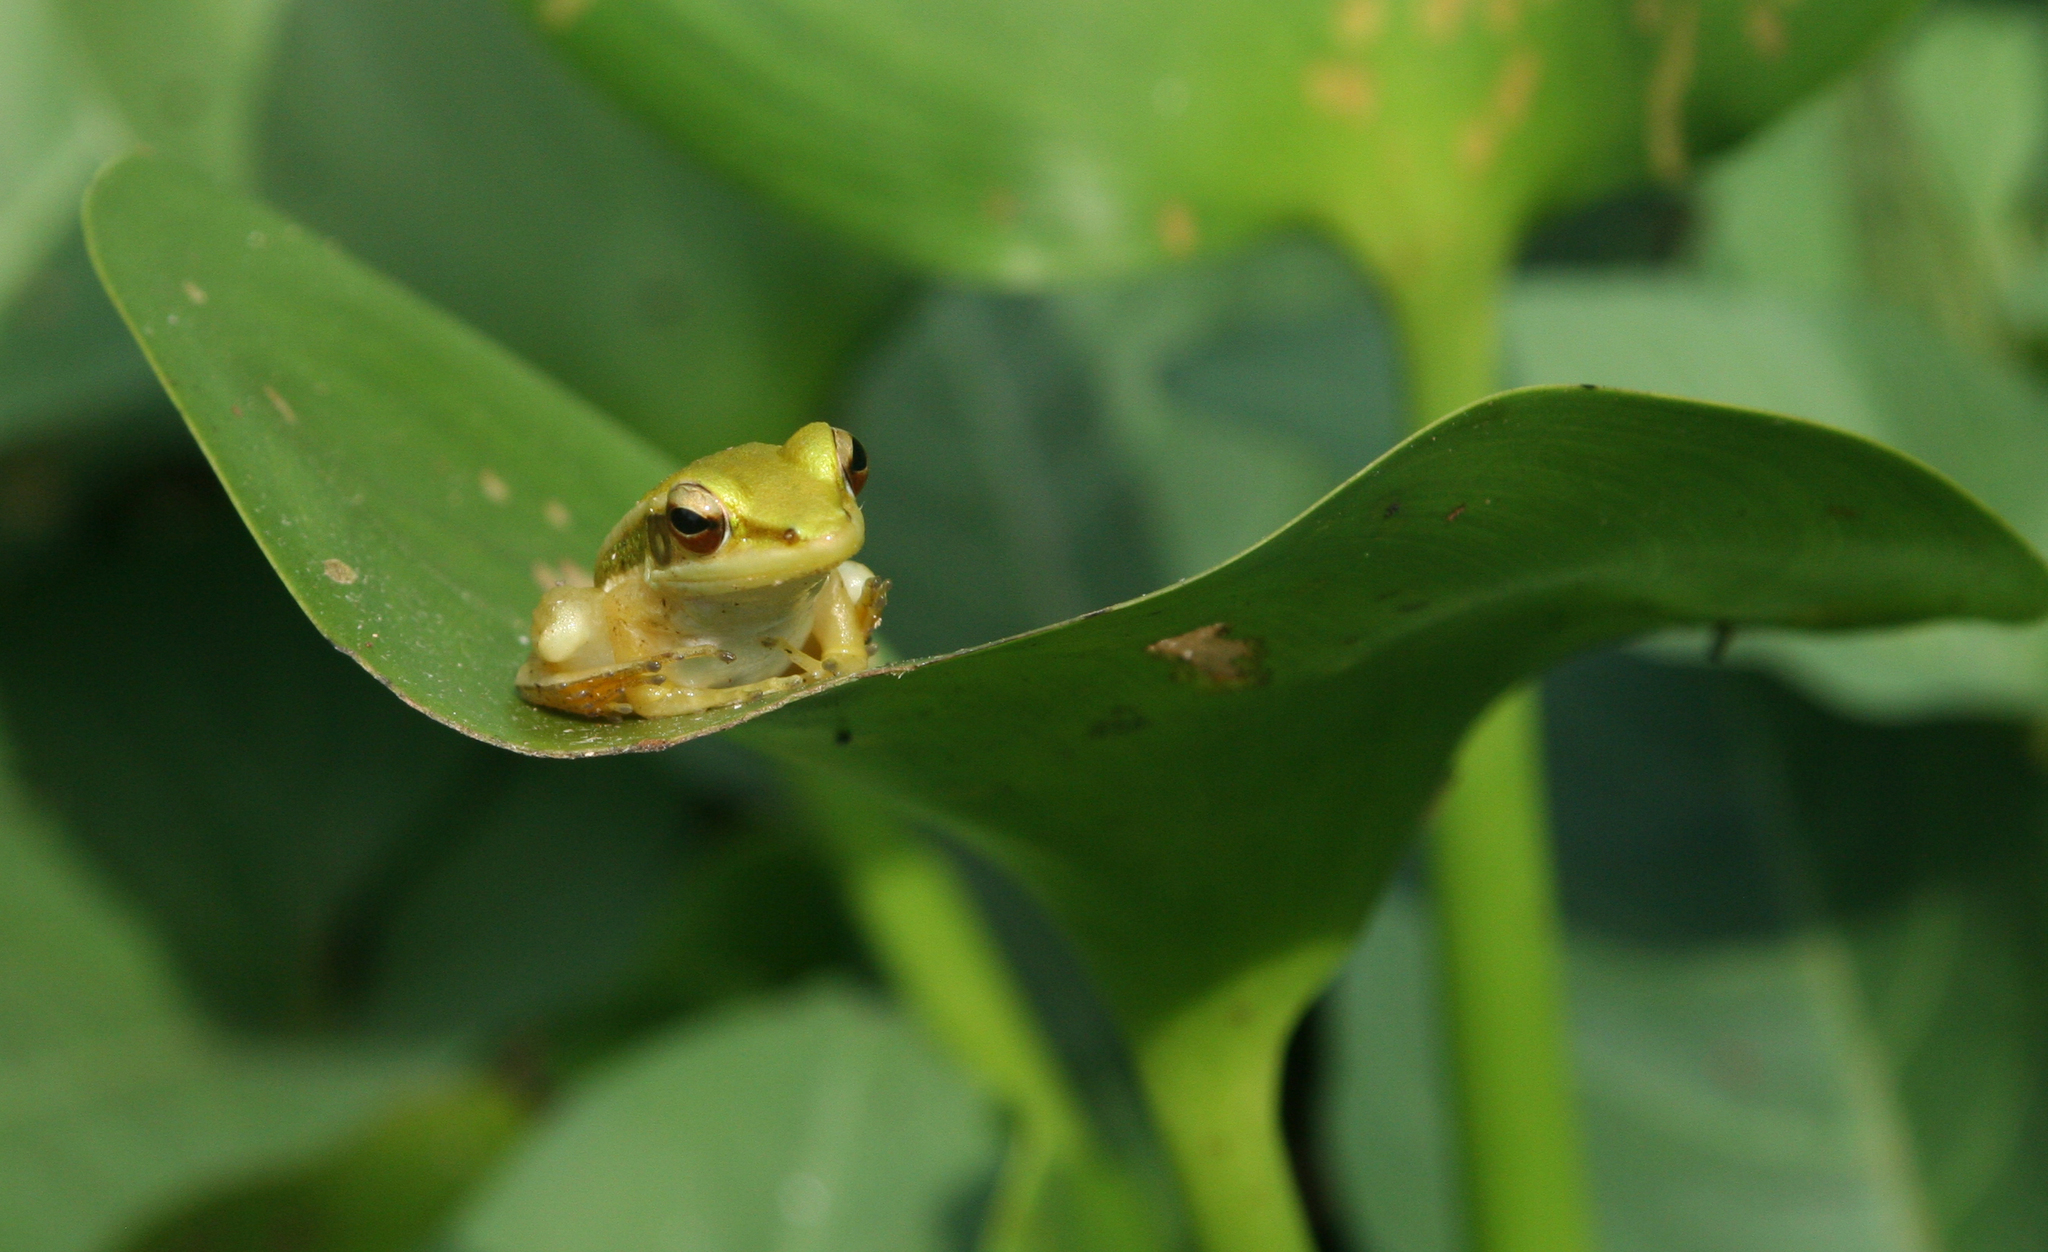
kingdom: Animalia
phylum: Chordata
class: Amphibia
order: Anura
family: Ranidae
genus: Hylarana
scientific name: Hylarana erythraea
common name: Common green frog/green paddy frog/leaf frog
